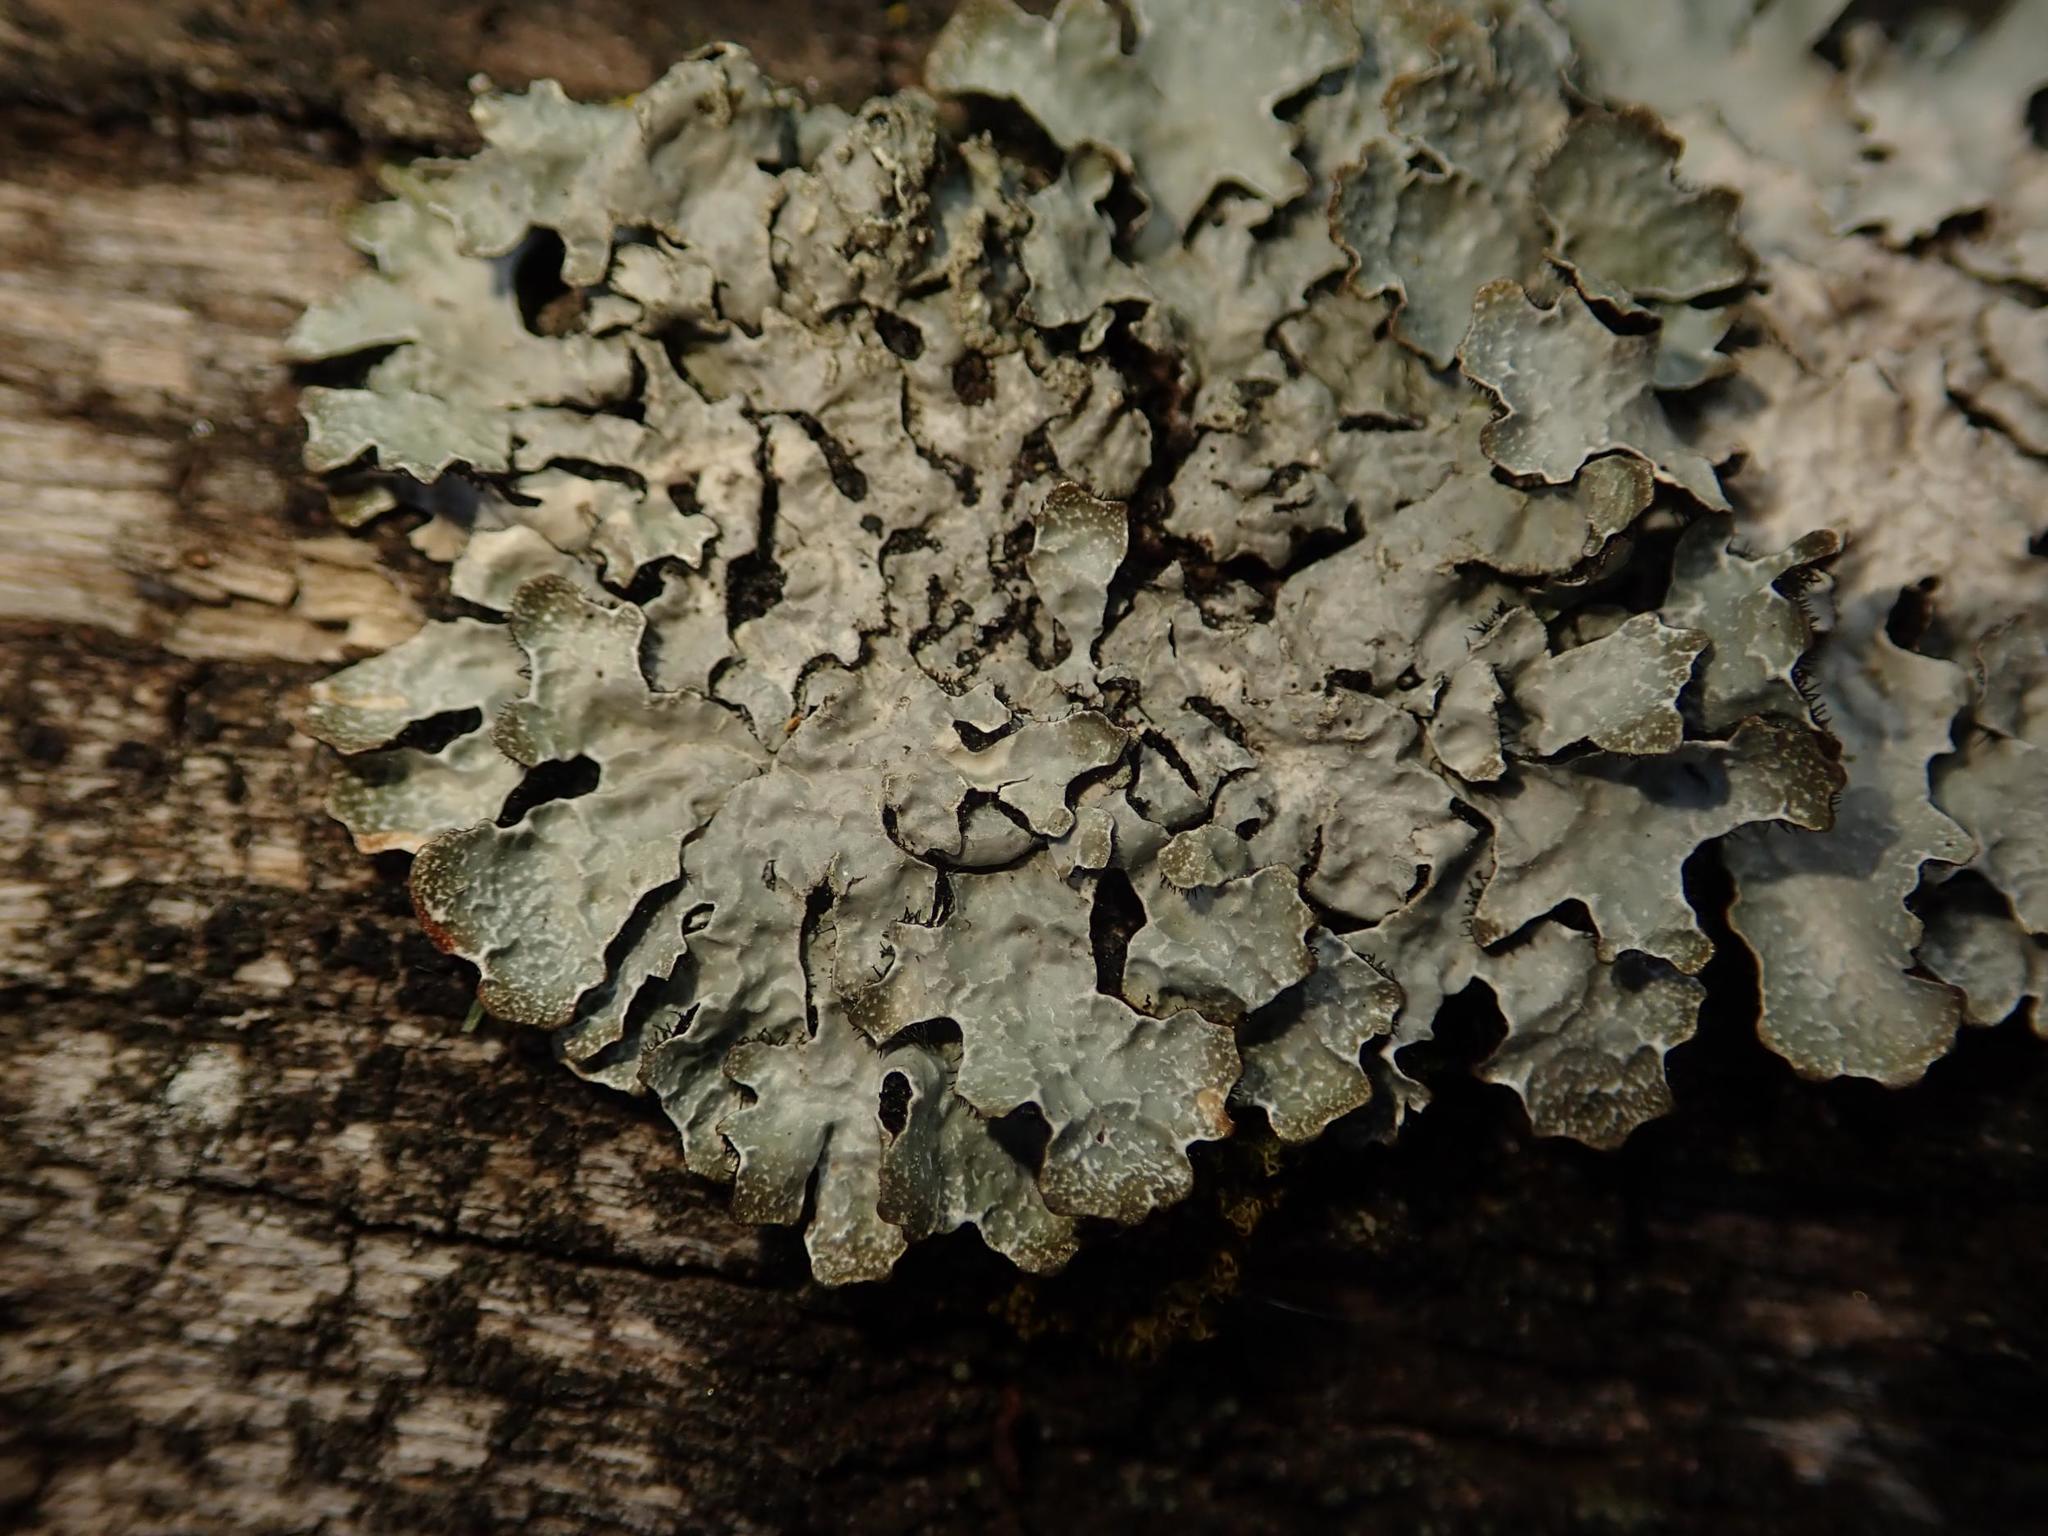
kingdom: Fungi
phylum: Ascomycota
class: Lecanoromycetes
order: Lecanorales
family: Parmeliaceae
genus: Parmelia
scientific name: Parmelia sulcata
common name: Netted shield lichen
